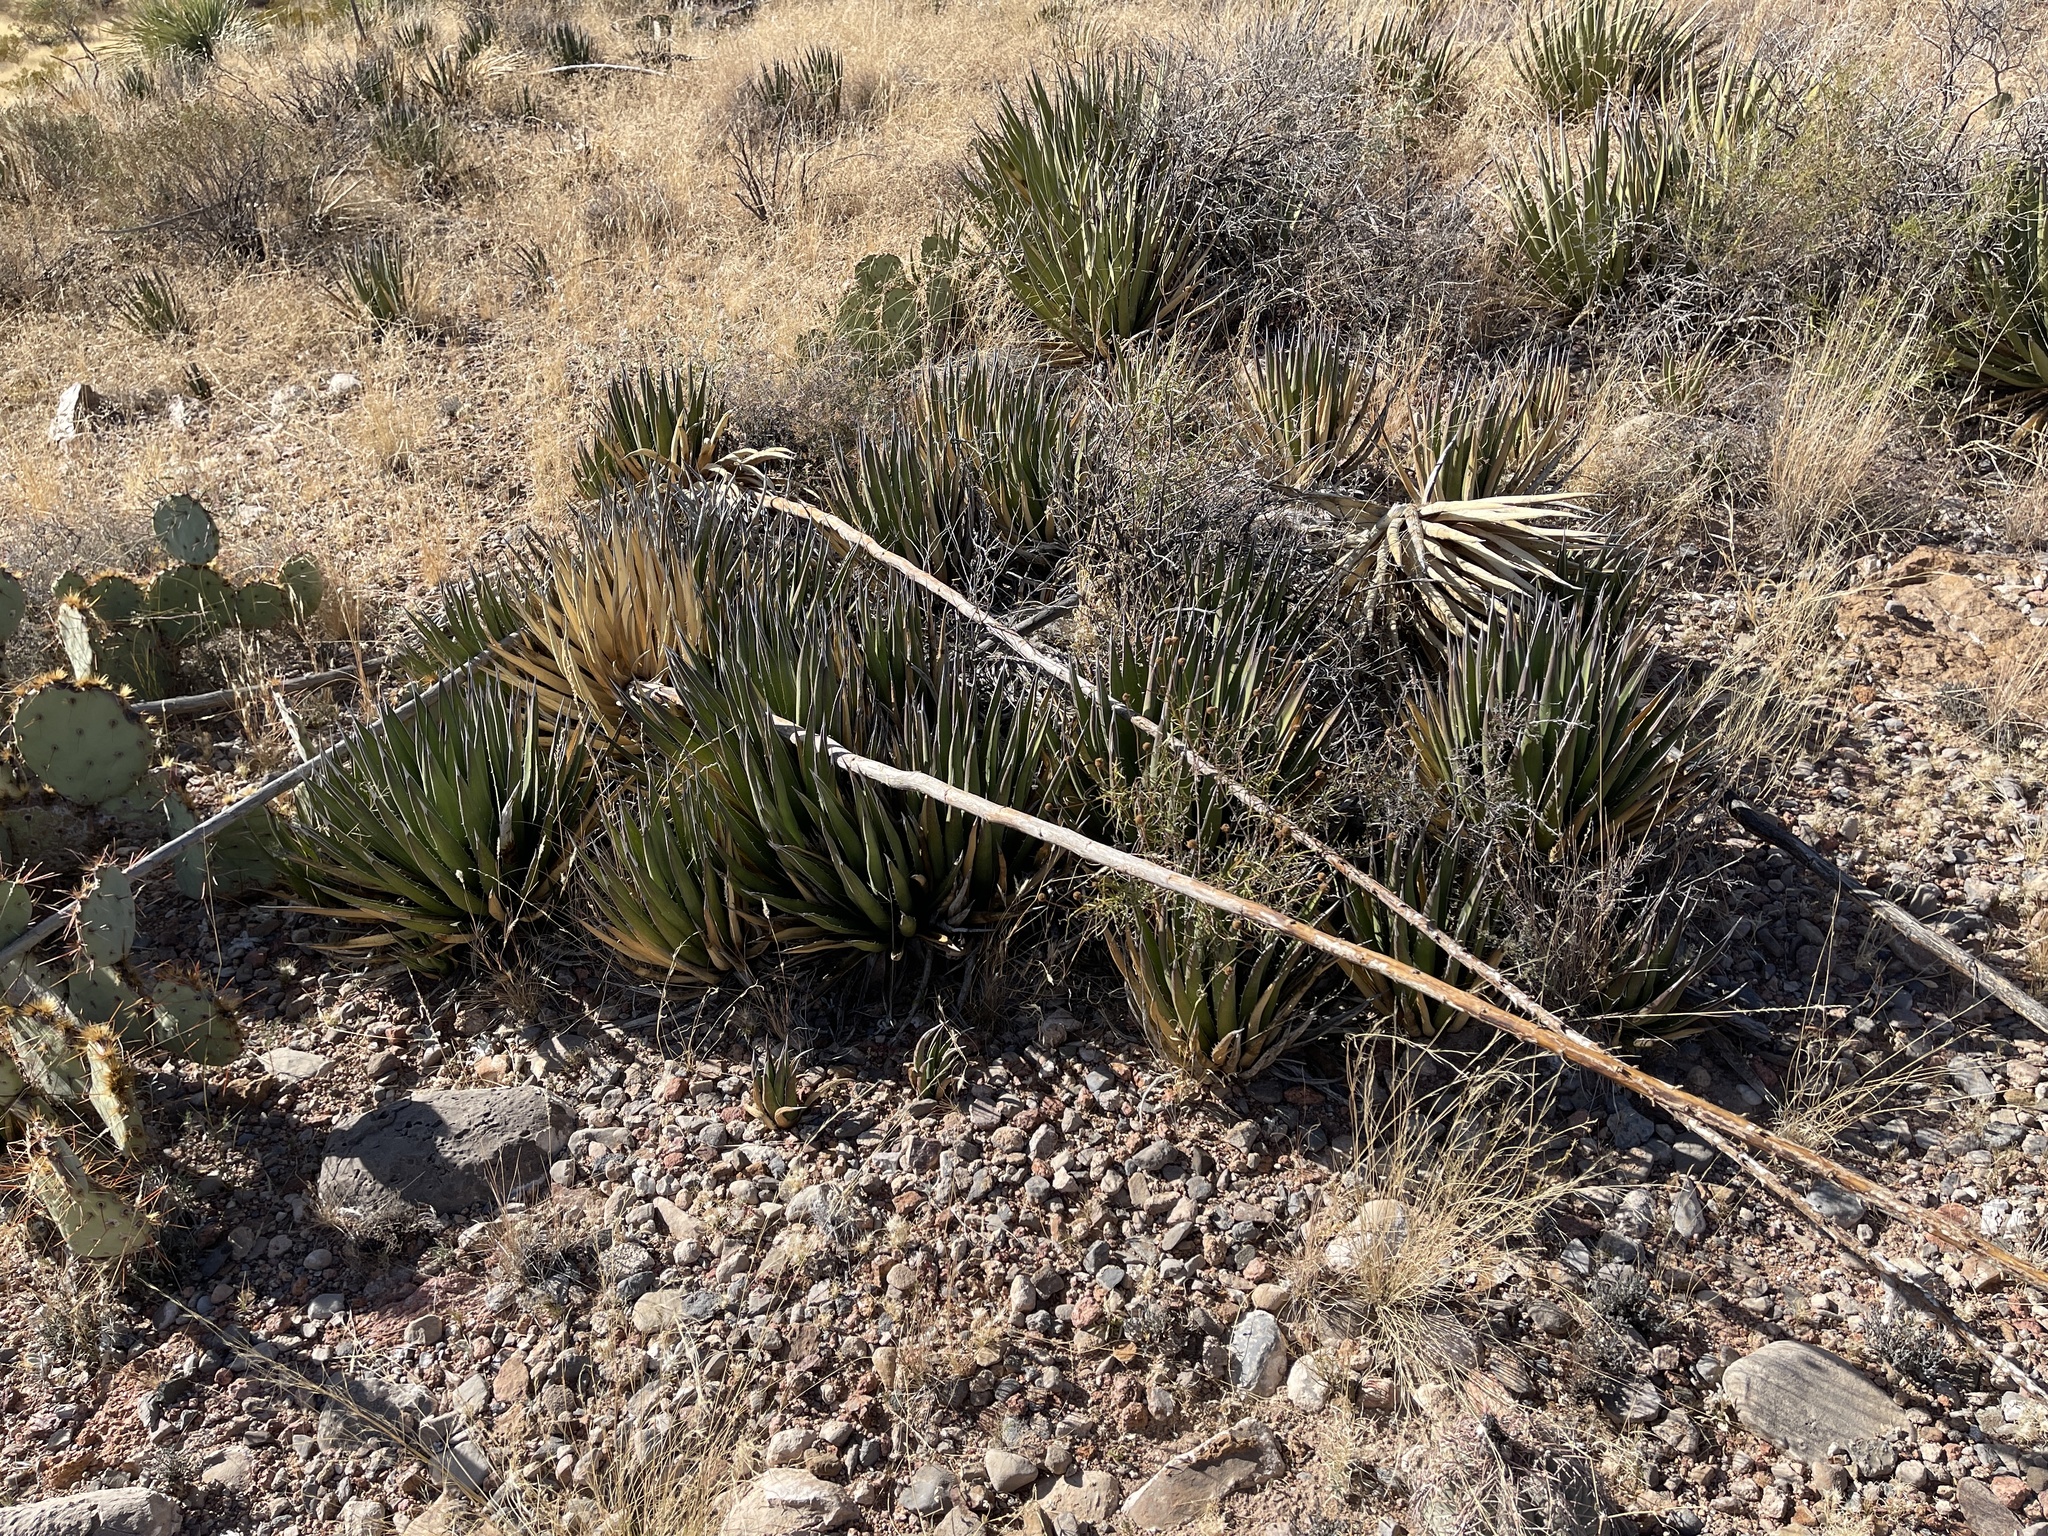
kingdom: Plantae
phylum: Tracheophyta
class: Liliopsida
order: Asparagales
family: Asparagaceae
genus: Agave
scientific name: Agave lechuguilla
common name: Lecheguilla agave
